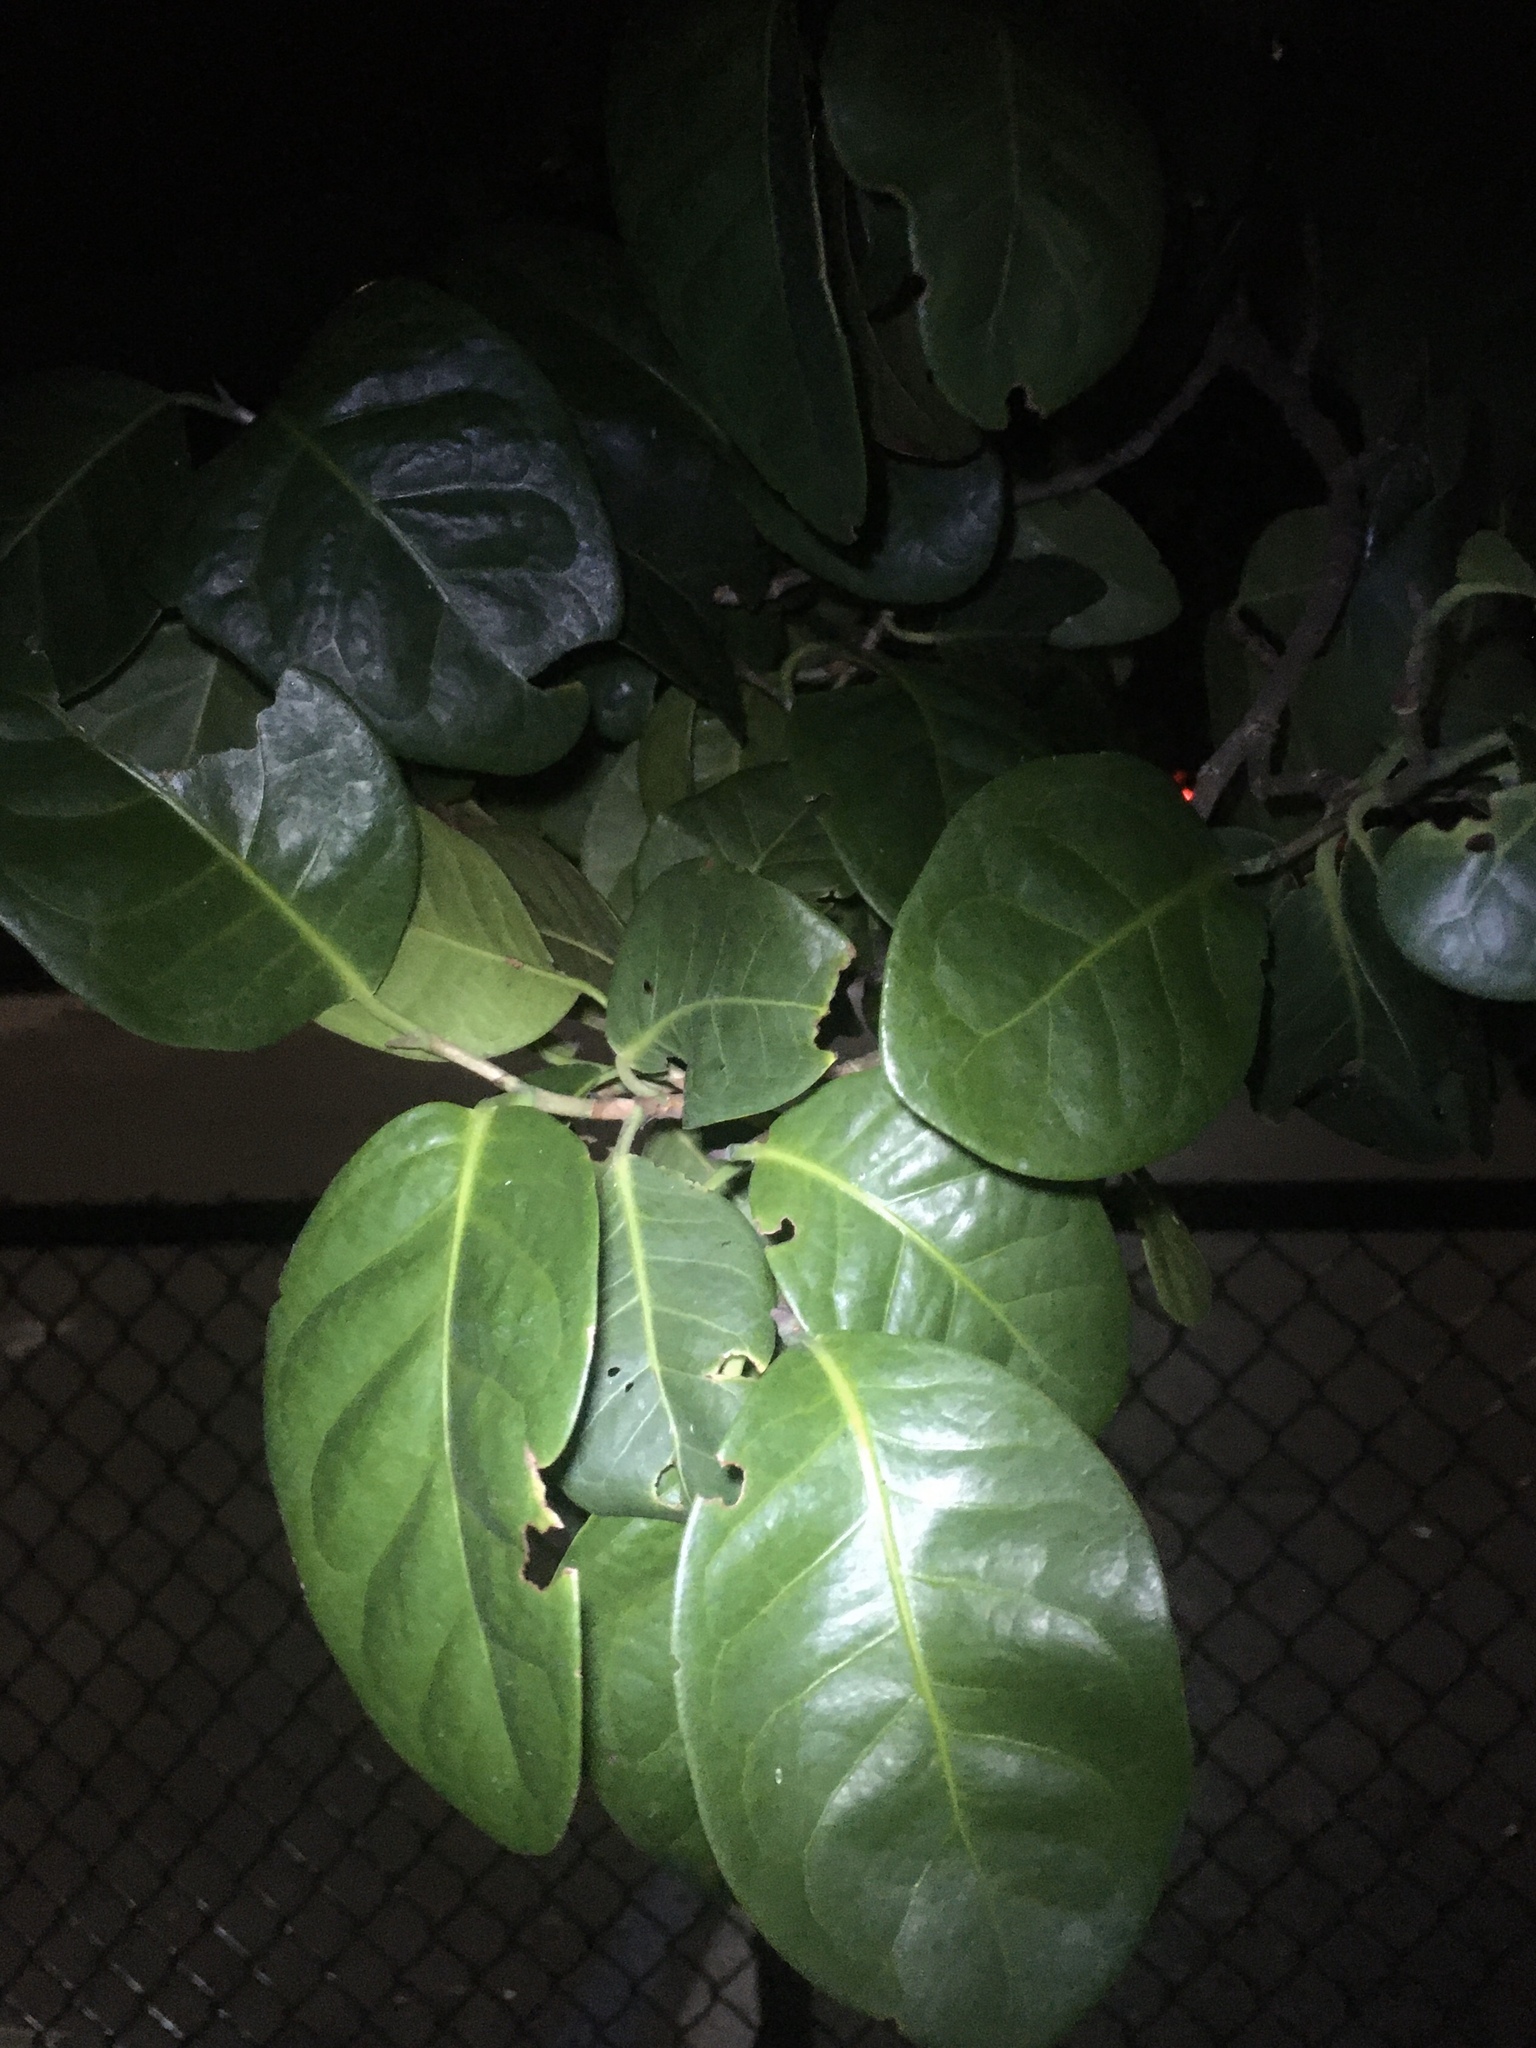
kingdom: Plantae
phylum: Tracheophyta
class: Magnoliopsida
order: Caryophyllales
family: Polygonaceae
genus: Coccoloba
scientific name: Coccoloba diversifolia
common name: Pigeon-plum
